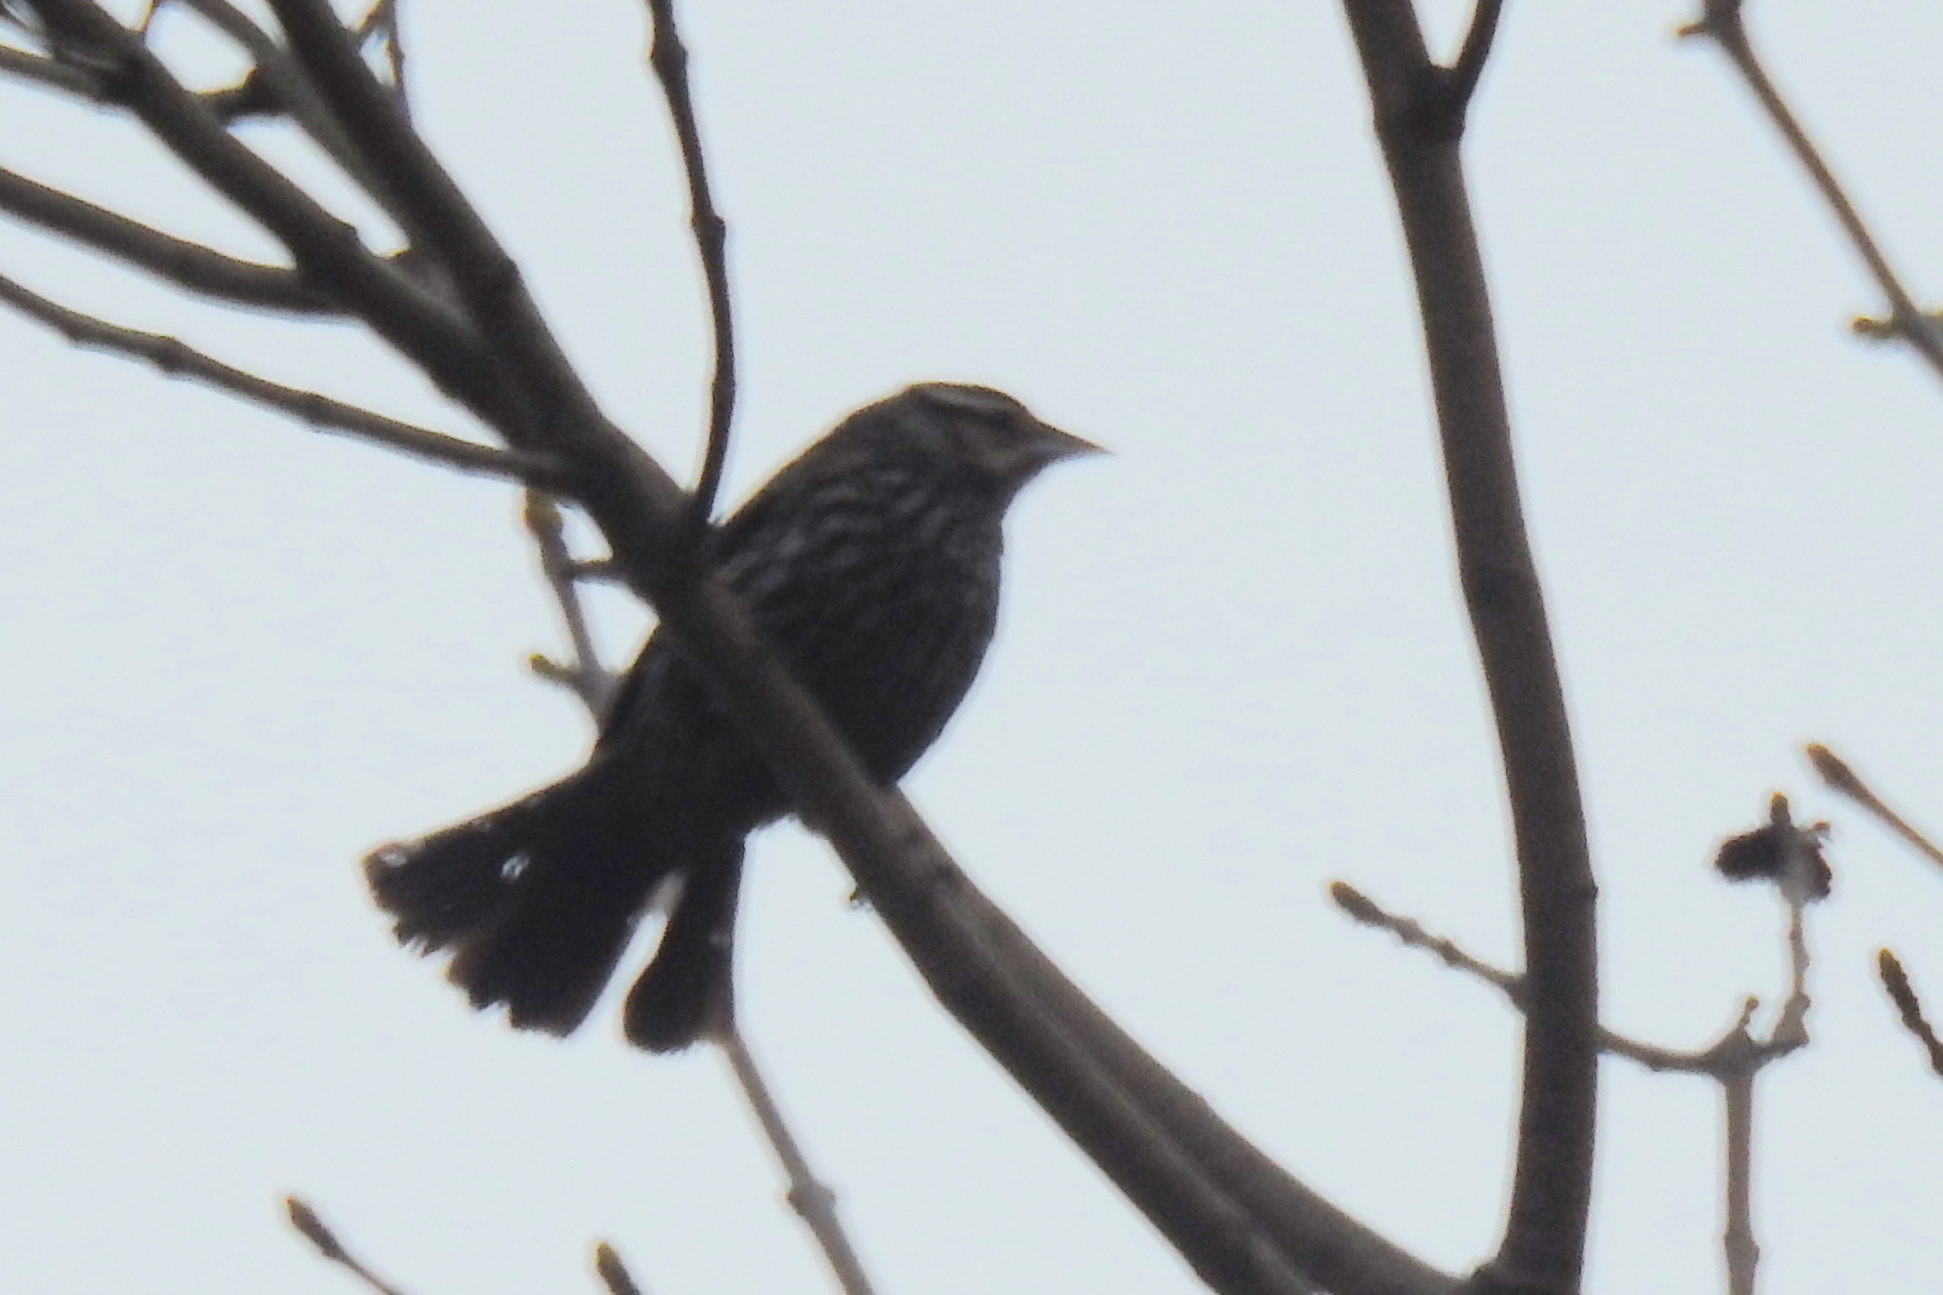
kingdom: Animalia
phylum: Chordata
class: Aves
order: Passeriformes
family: Icteridae
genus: Agelaius
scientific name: Agelaius phoeniceus
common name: Red-winged blackbird
